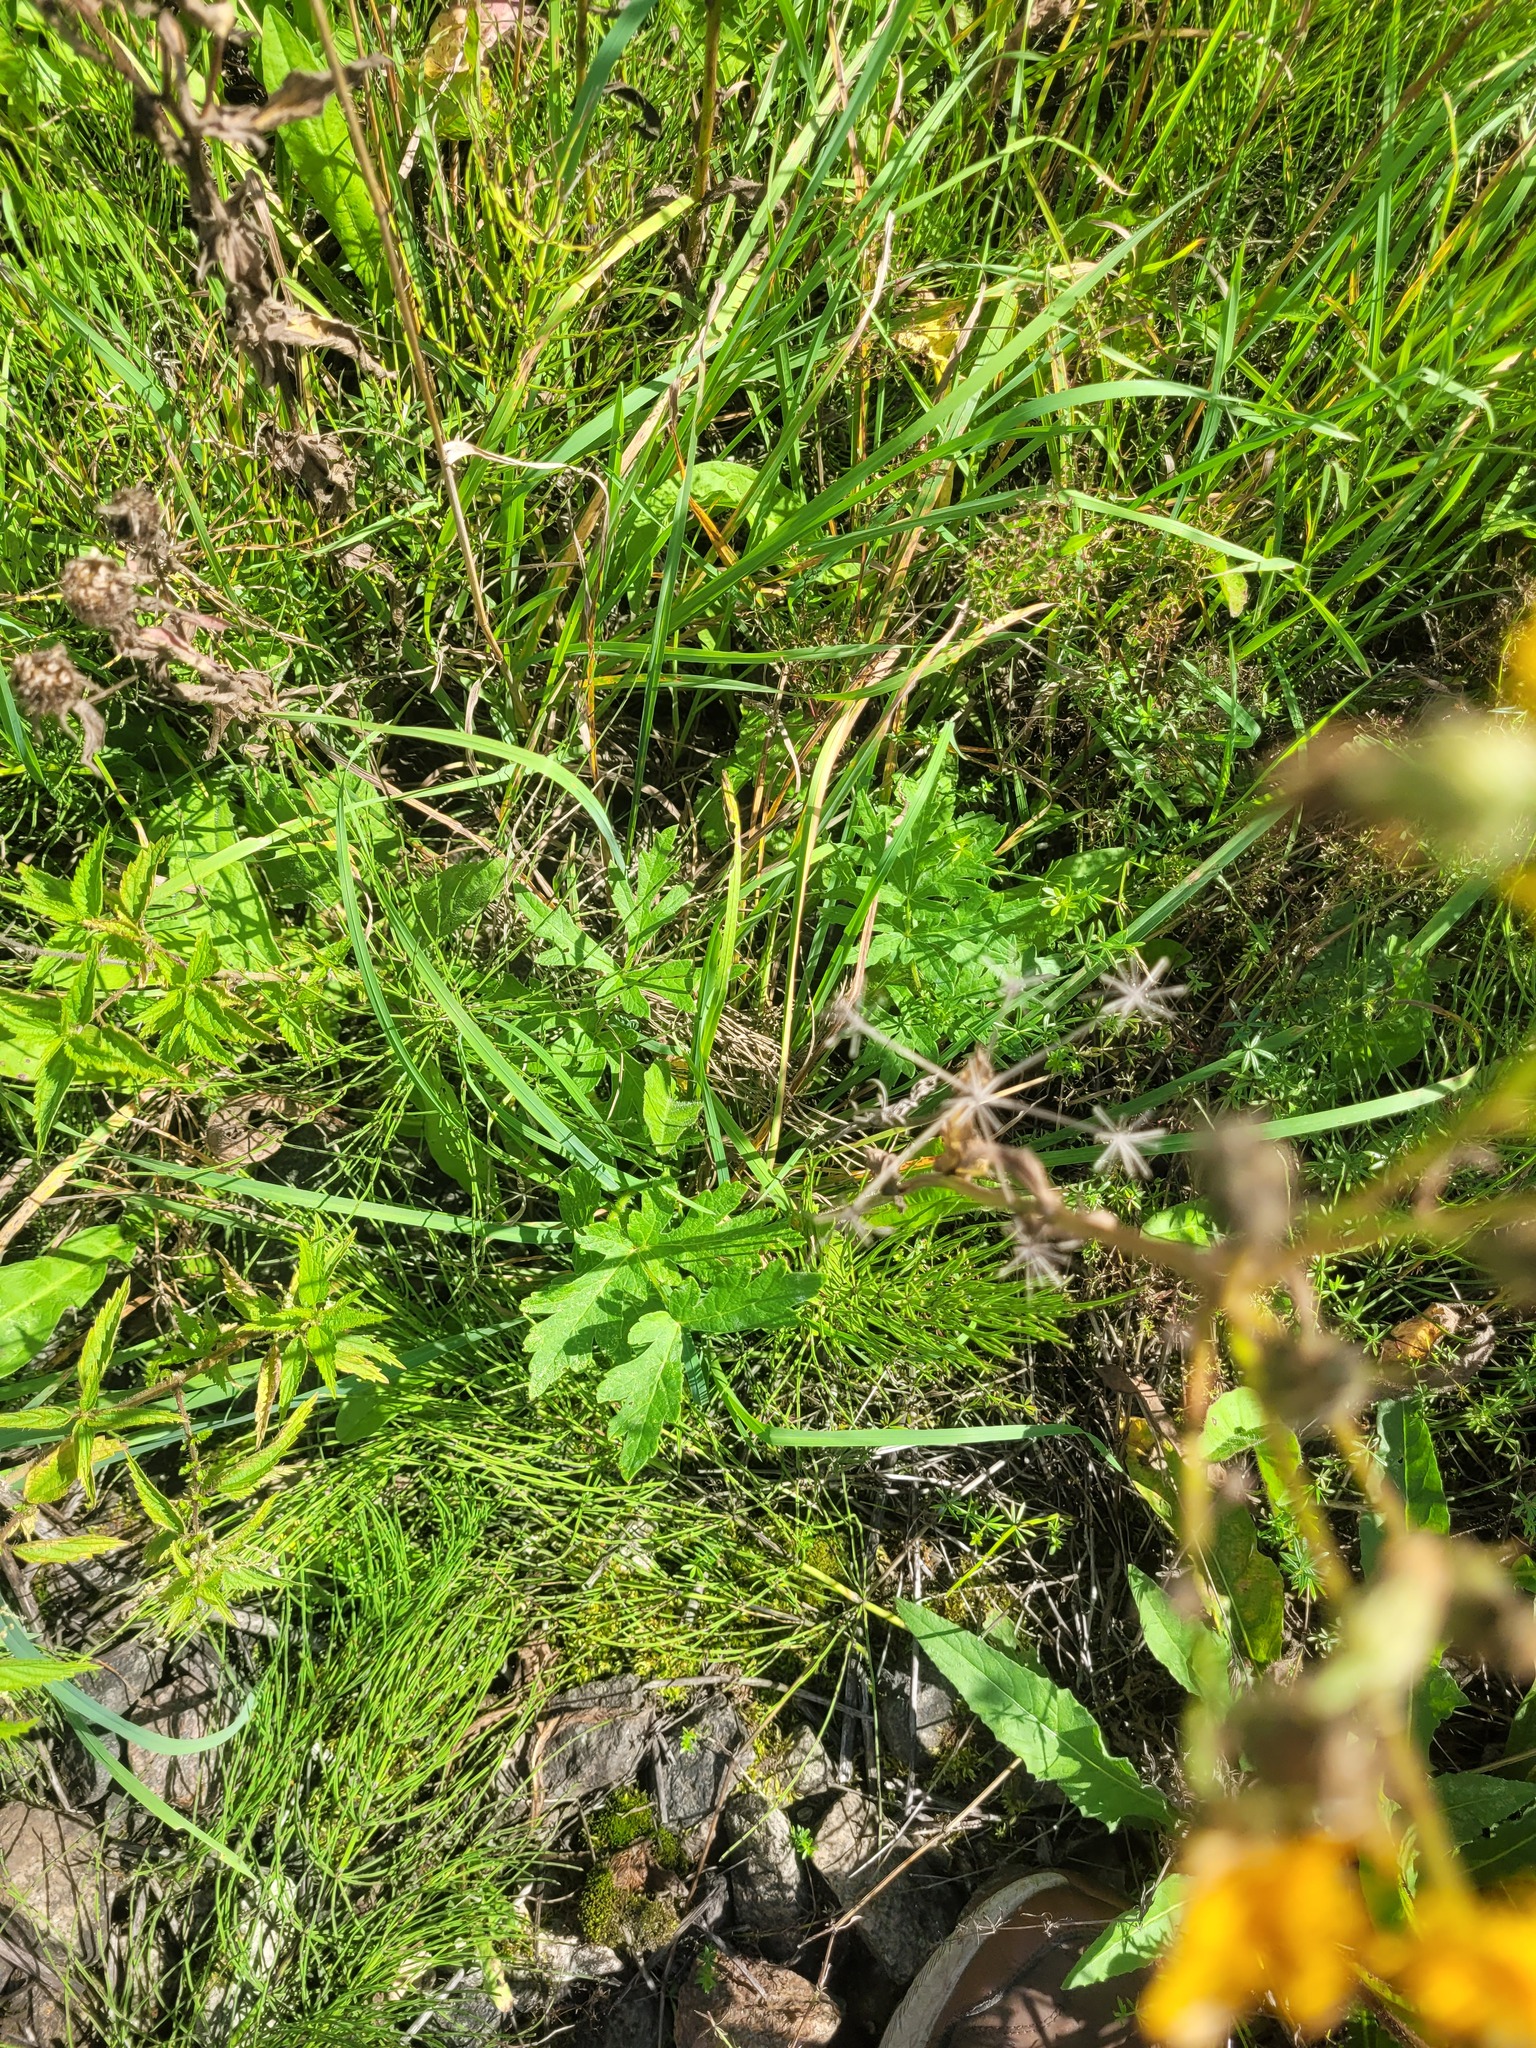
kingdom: Plantae
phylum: Tracheophyta
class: Magnoliopsida
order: Apiales
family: Apiaceae
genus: Heracleum
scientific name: Heracleum sphondylium
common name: Hogweed
